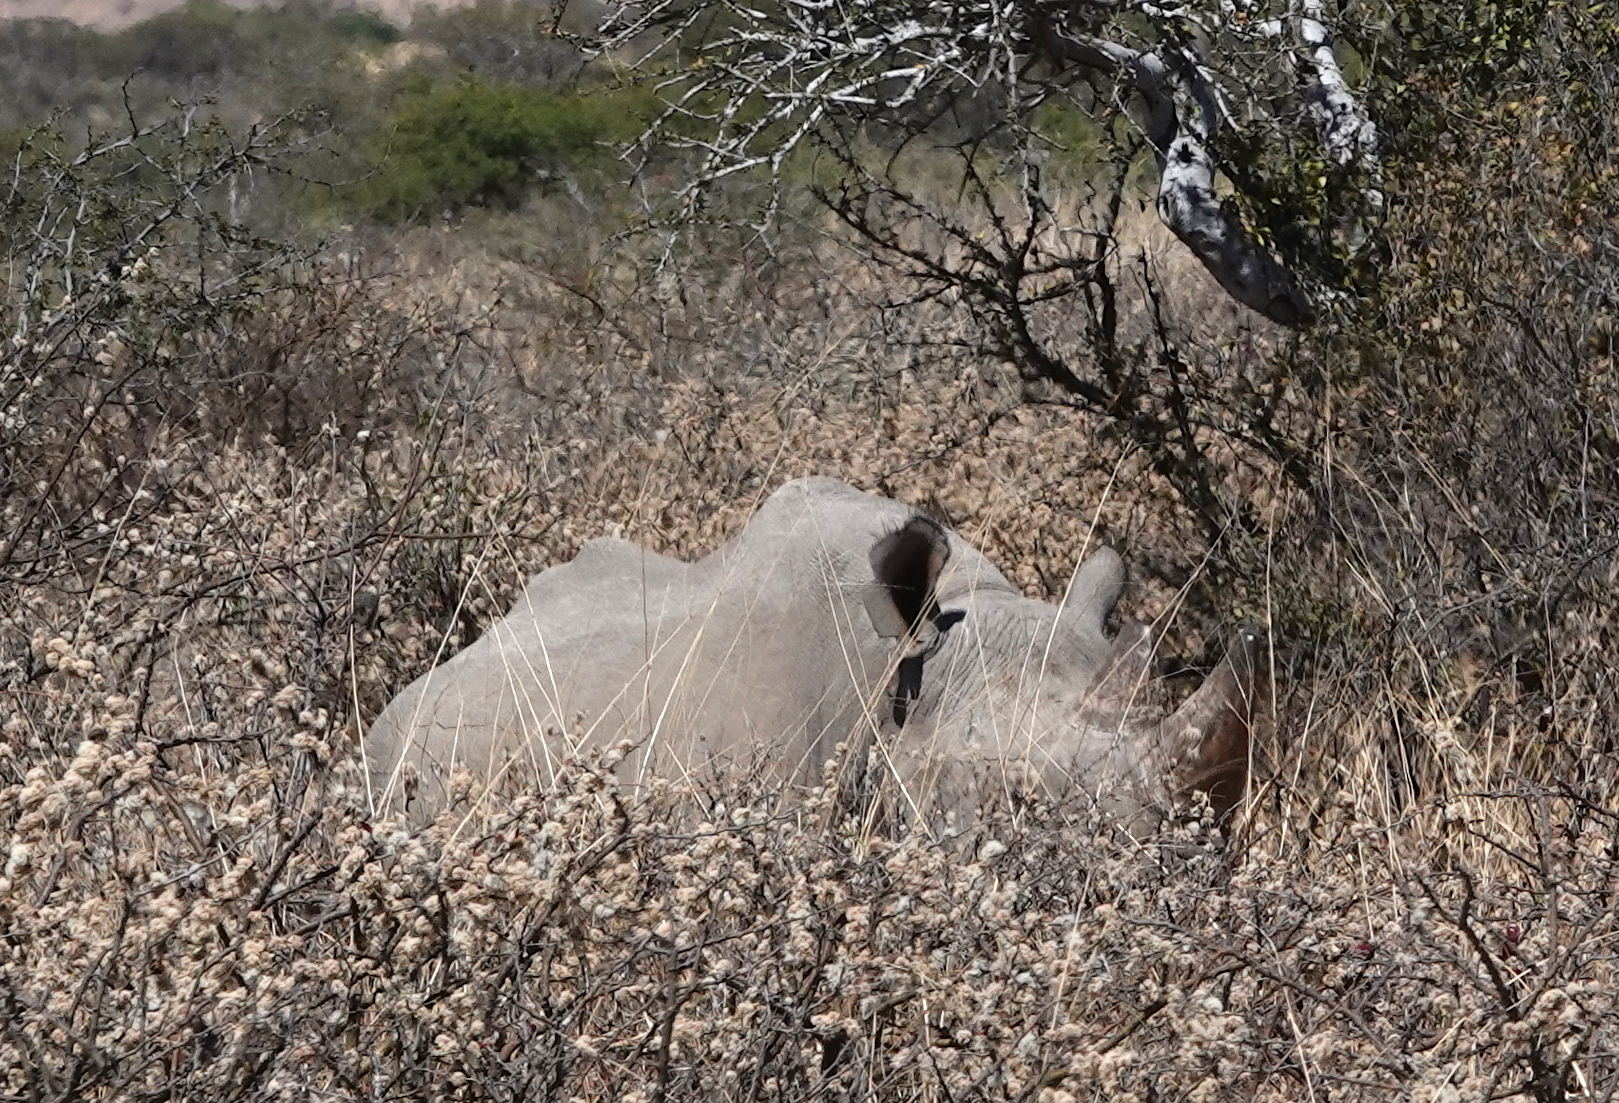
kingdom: Animalia
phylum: Chordata
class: Mammalia
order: Perissodactyla
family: Rhinocerotidae
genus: Diceros
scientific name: Diceros bicornis
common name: Black rhinoceros
